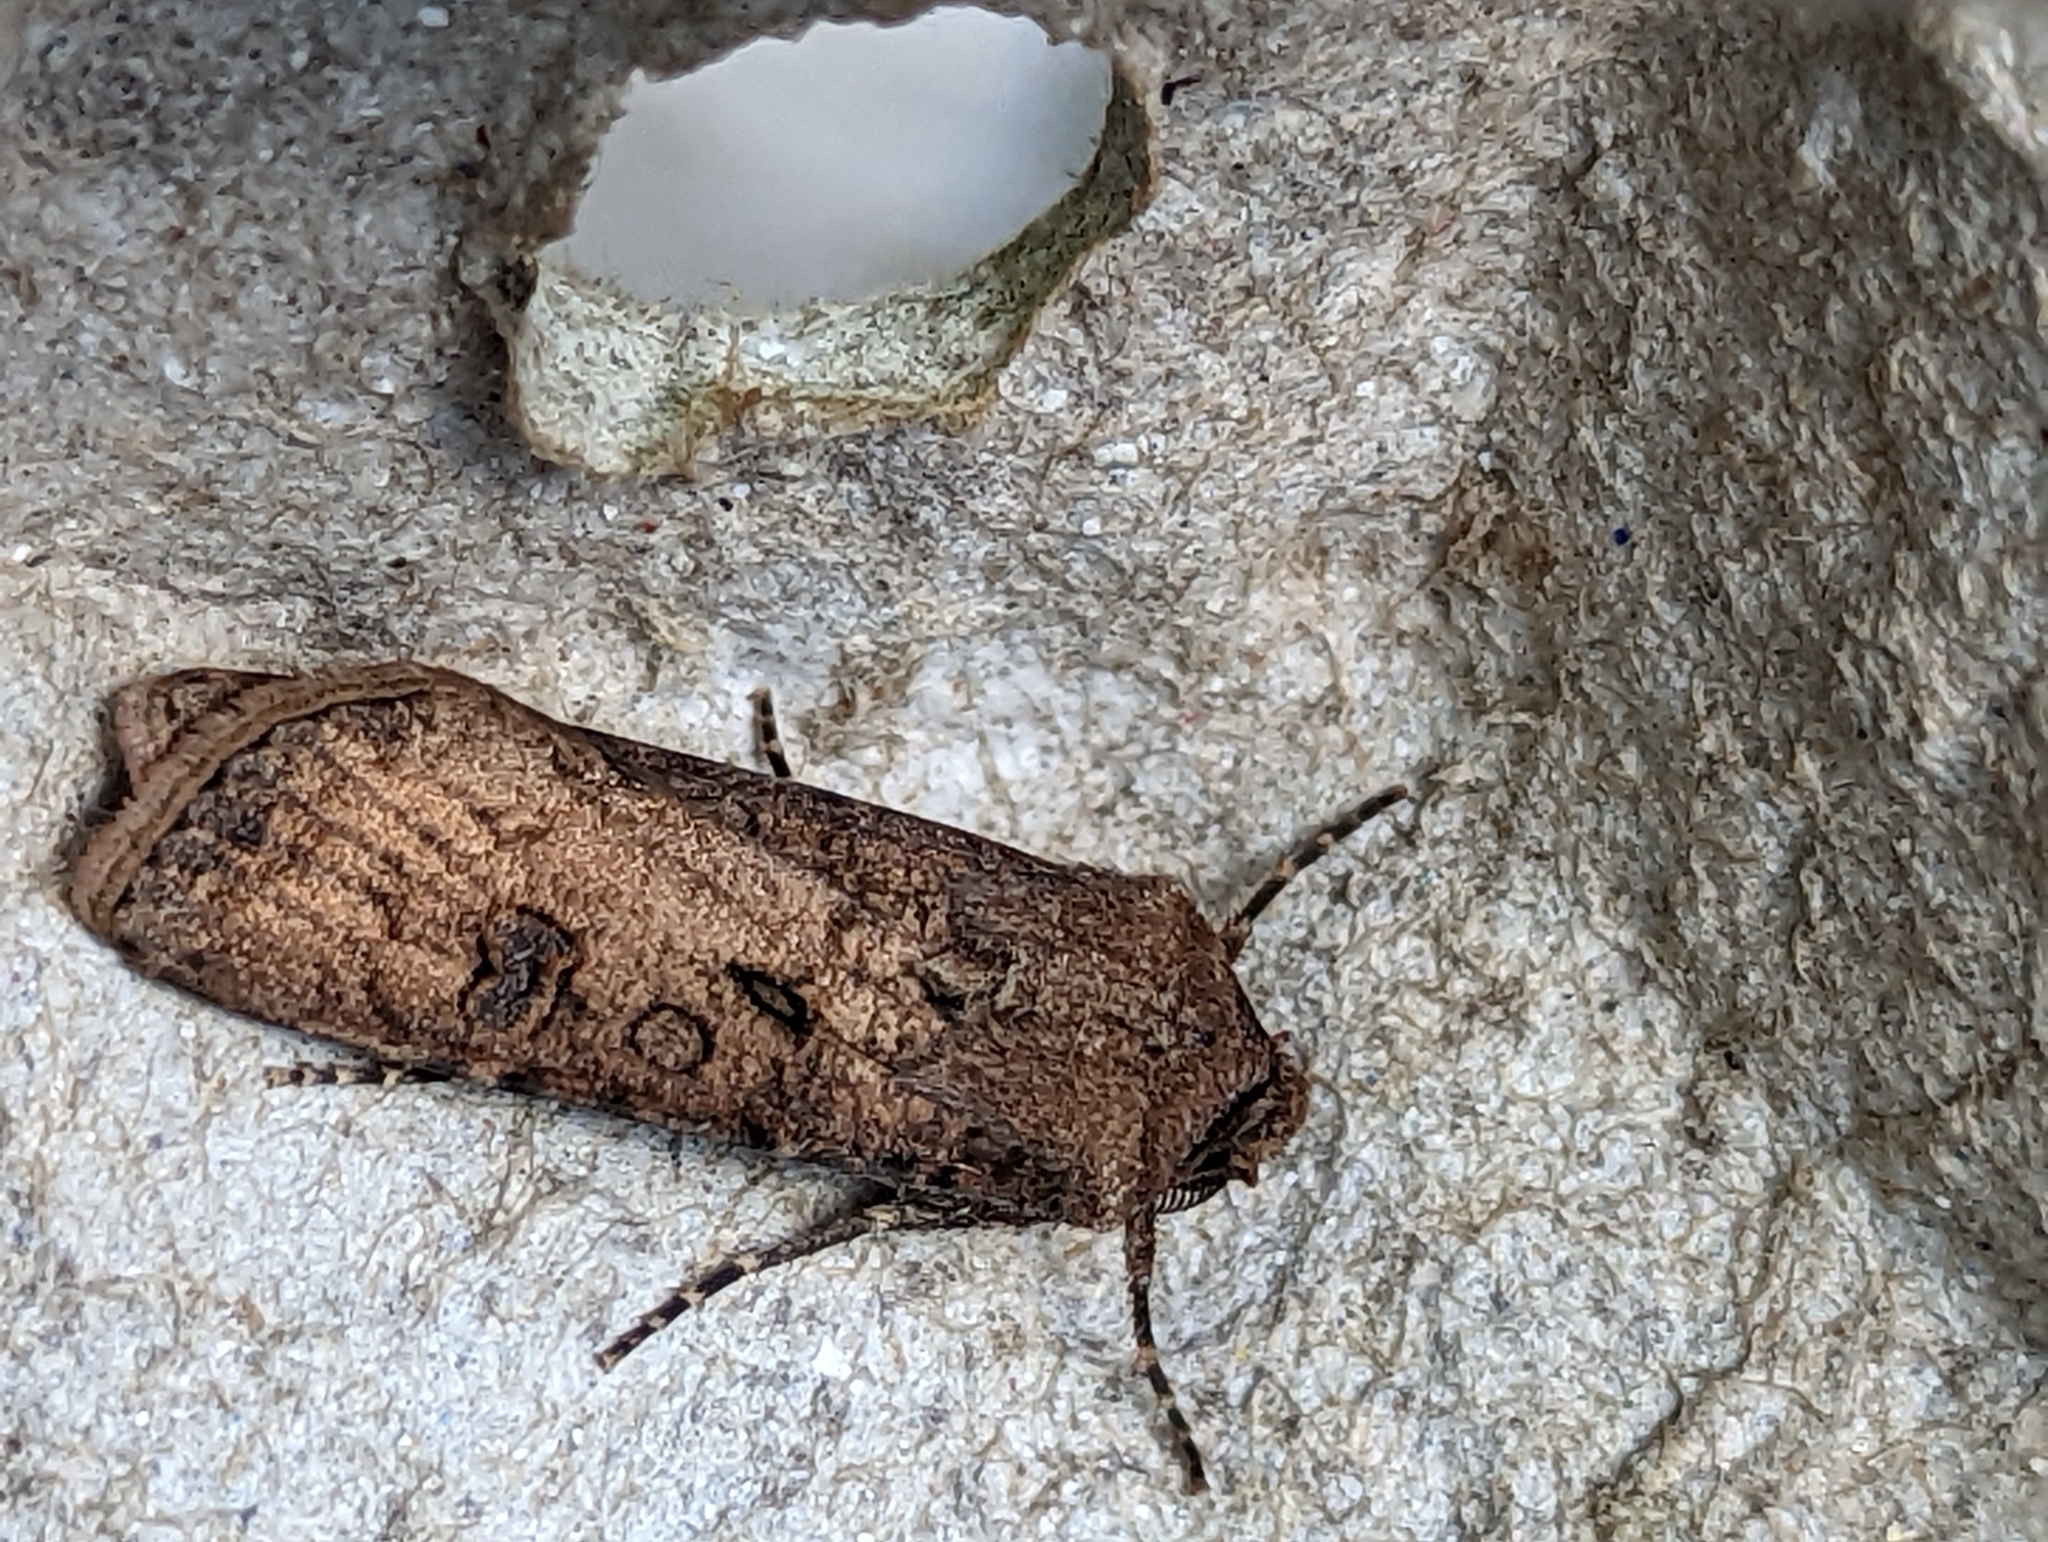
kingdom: Animalia
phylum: Arthropoda
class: Insecta
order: Lepidoptera
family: Noctuidae
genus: Agrotis
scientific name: Agrotis segetum
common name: Turnip moth
